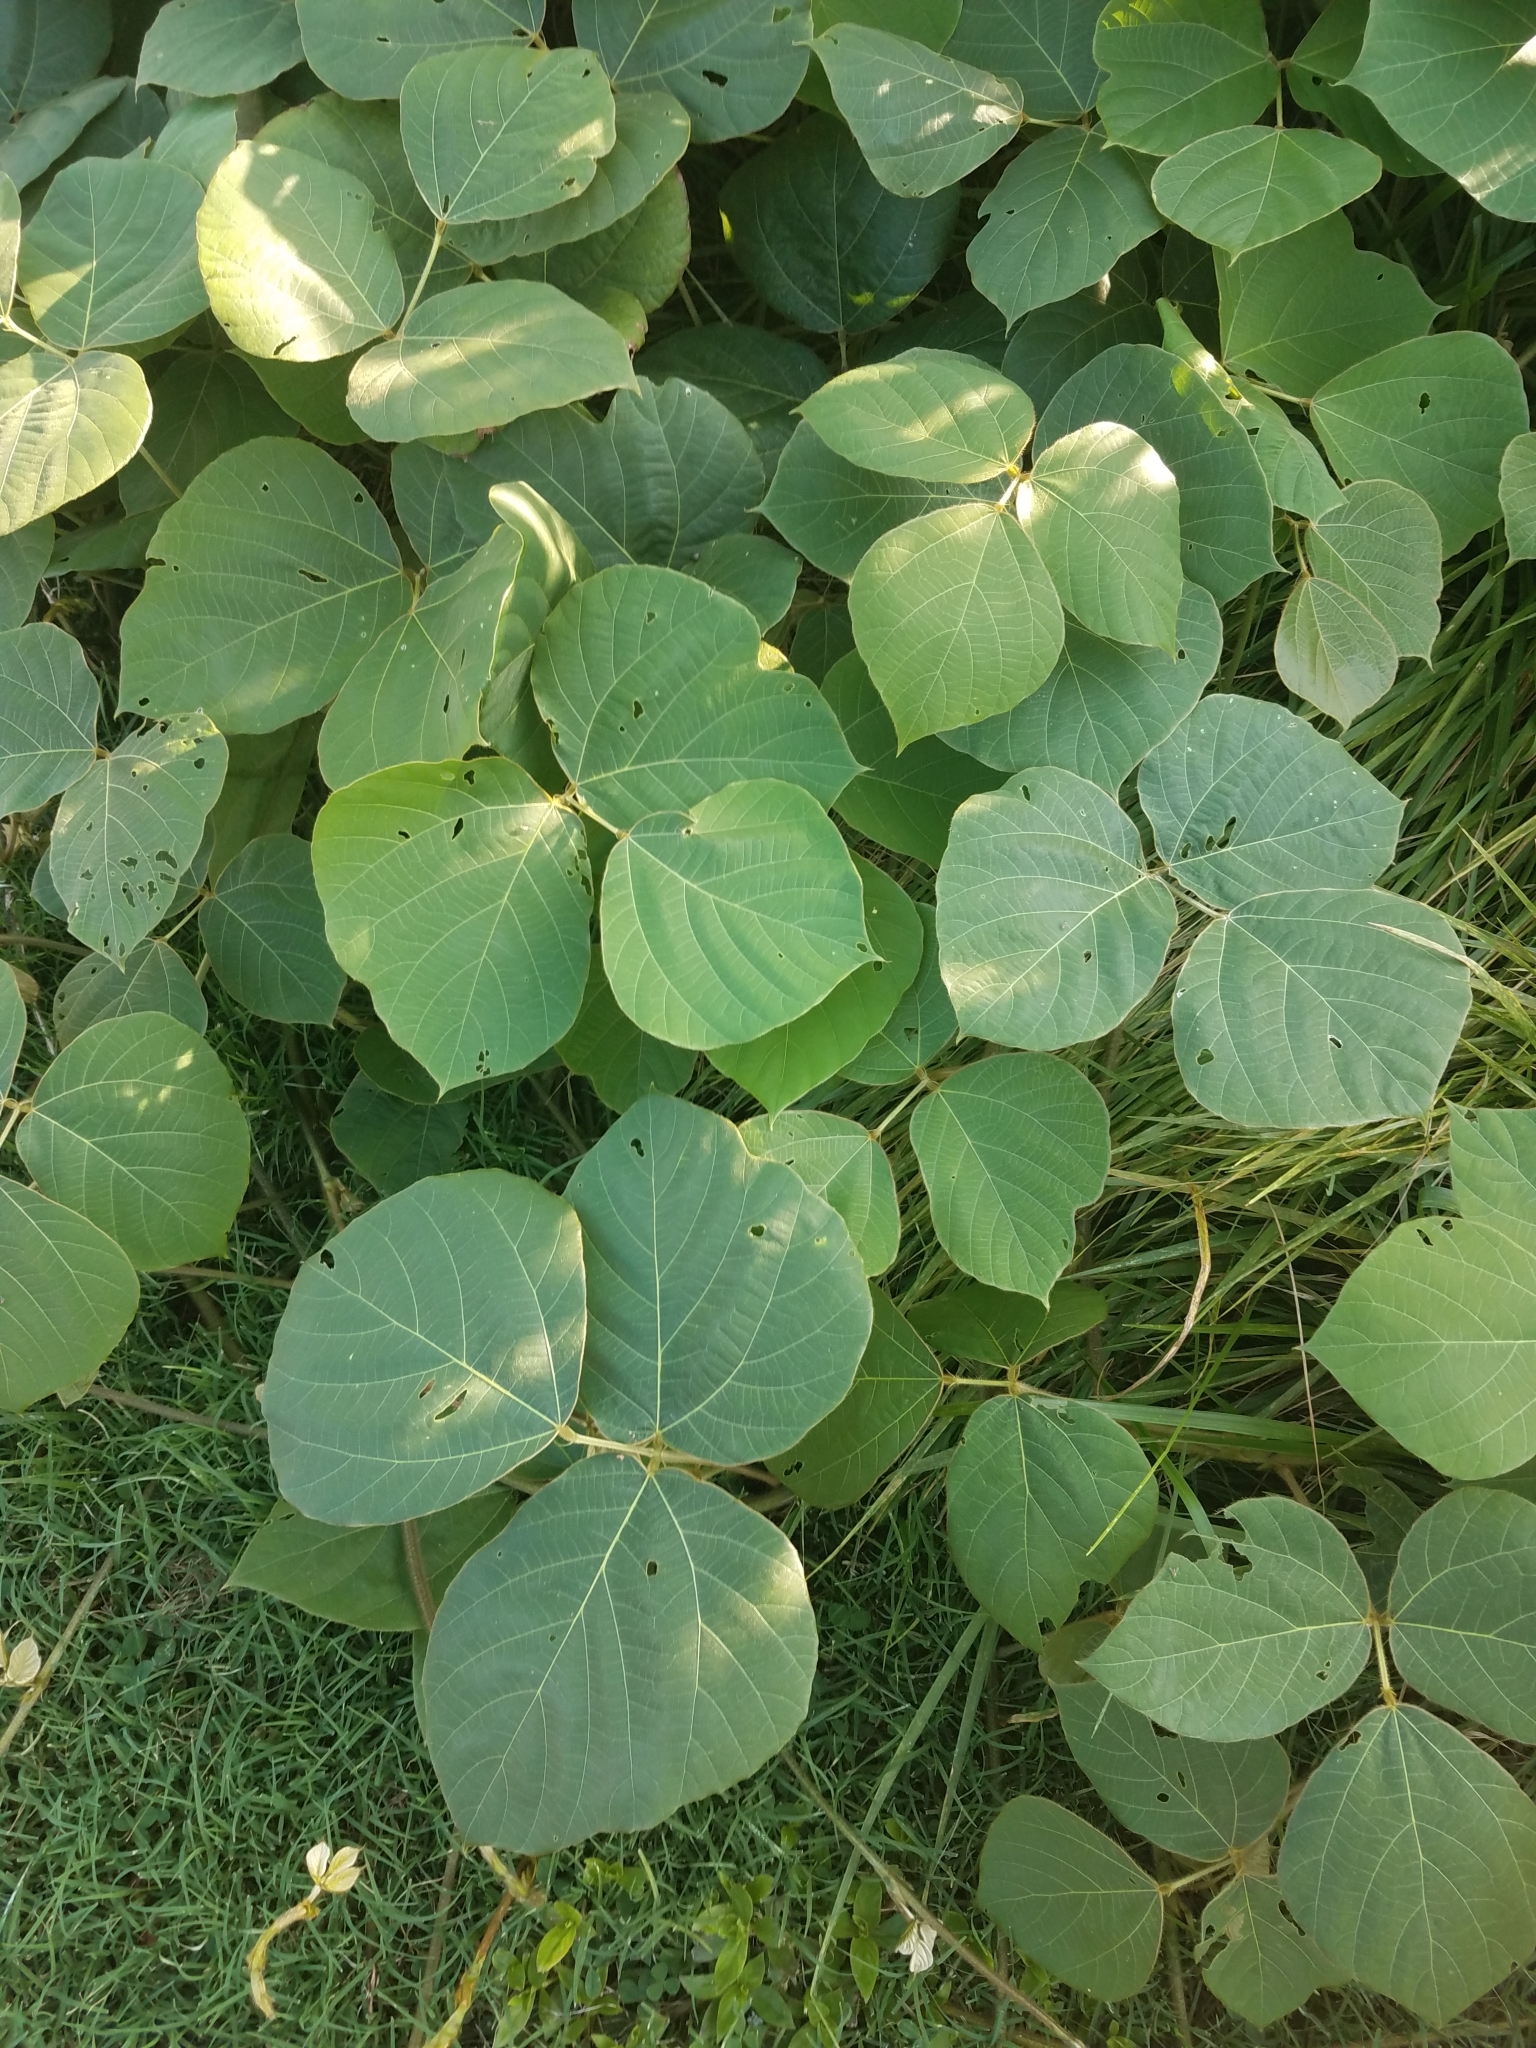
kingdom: Plantae
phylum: Tracheophyta
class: Magnoliopsida
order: Fabales
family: Fabaceae
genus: Pueraria
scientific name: Pueraria montana
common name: Kudzu
